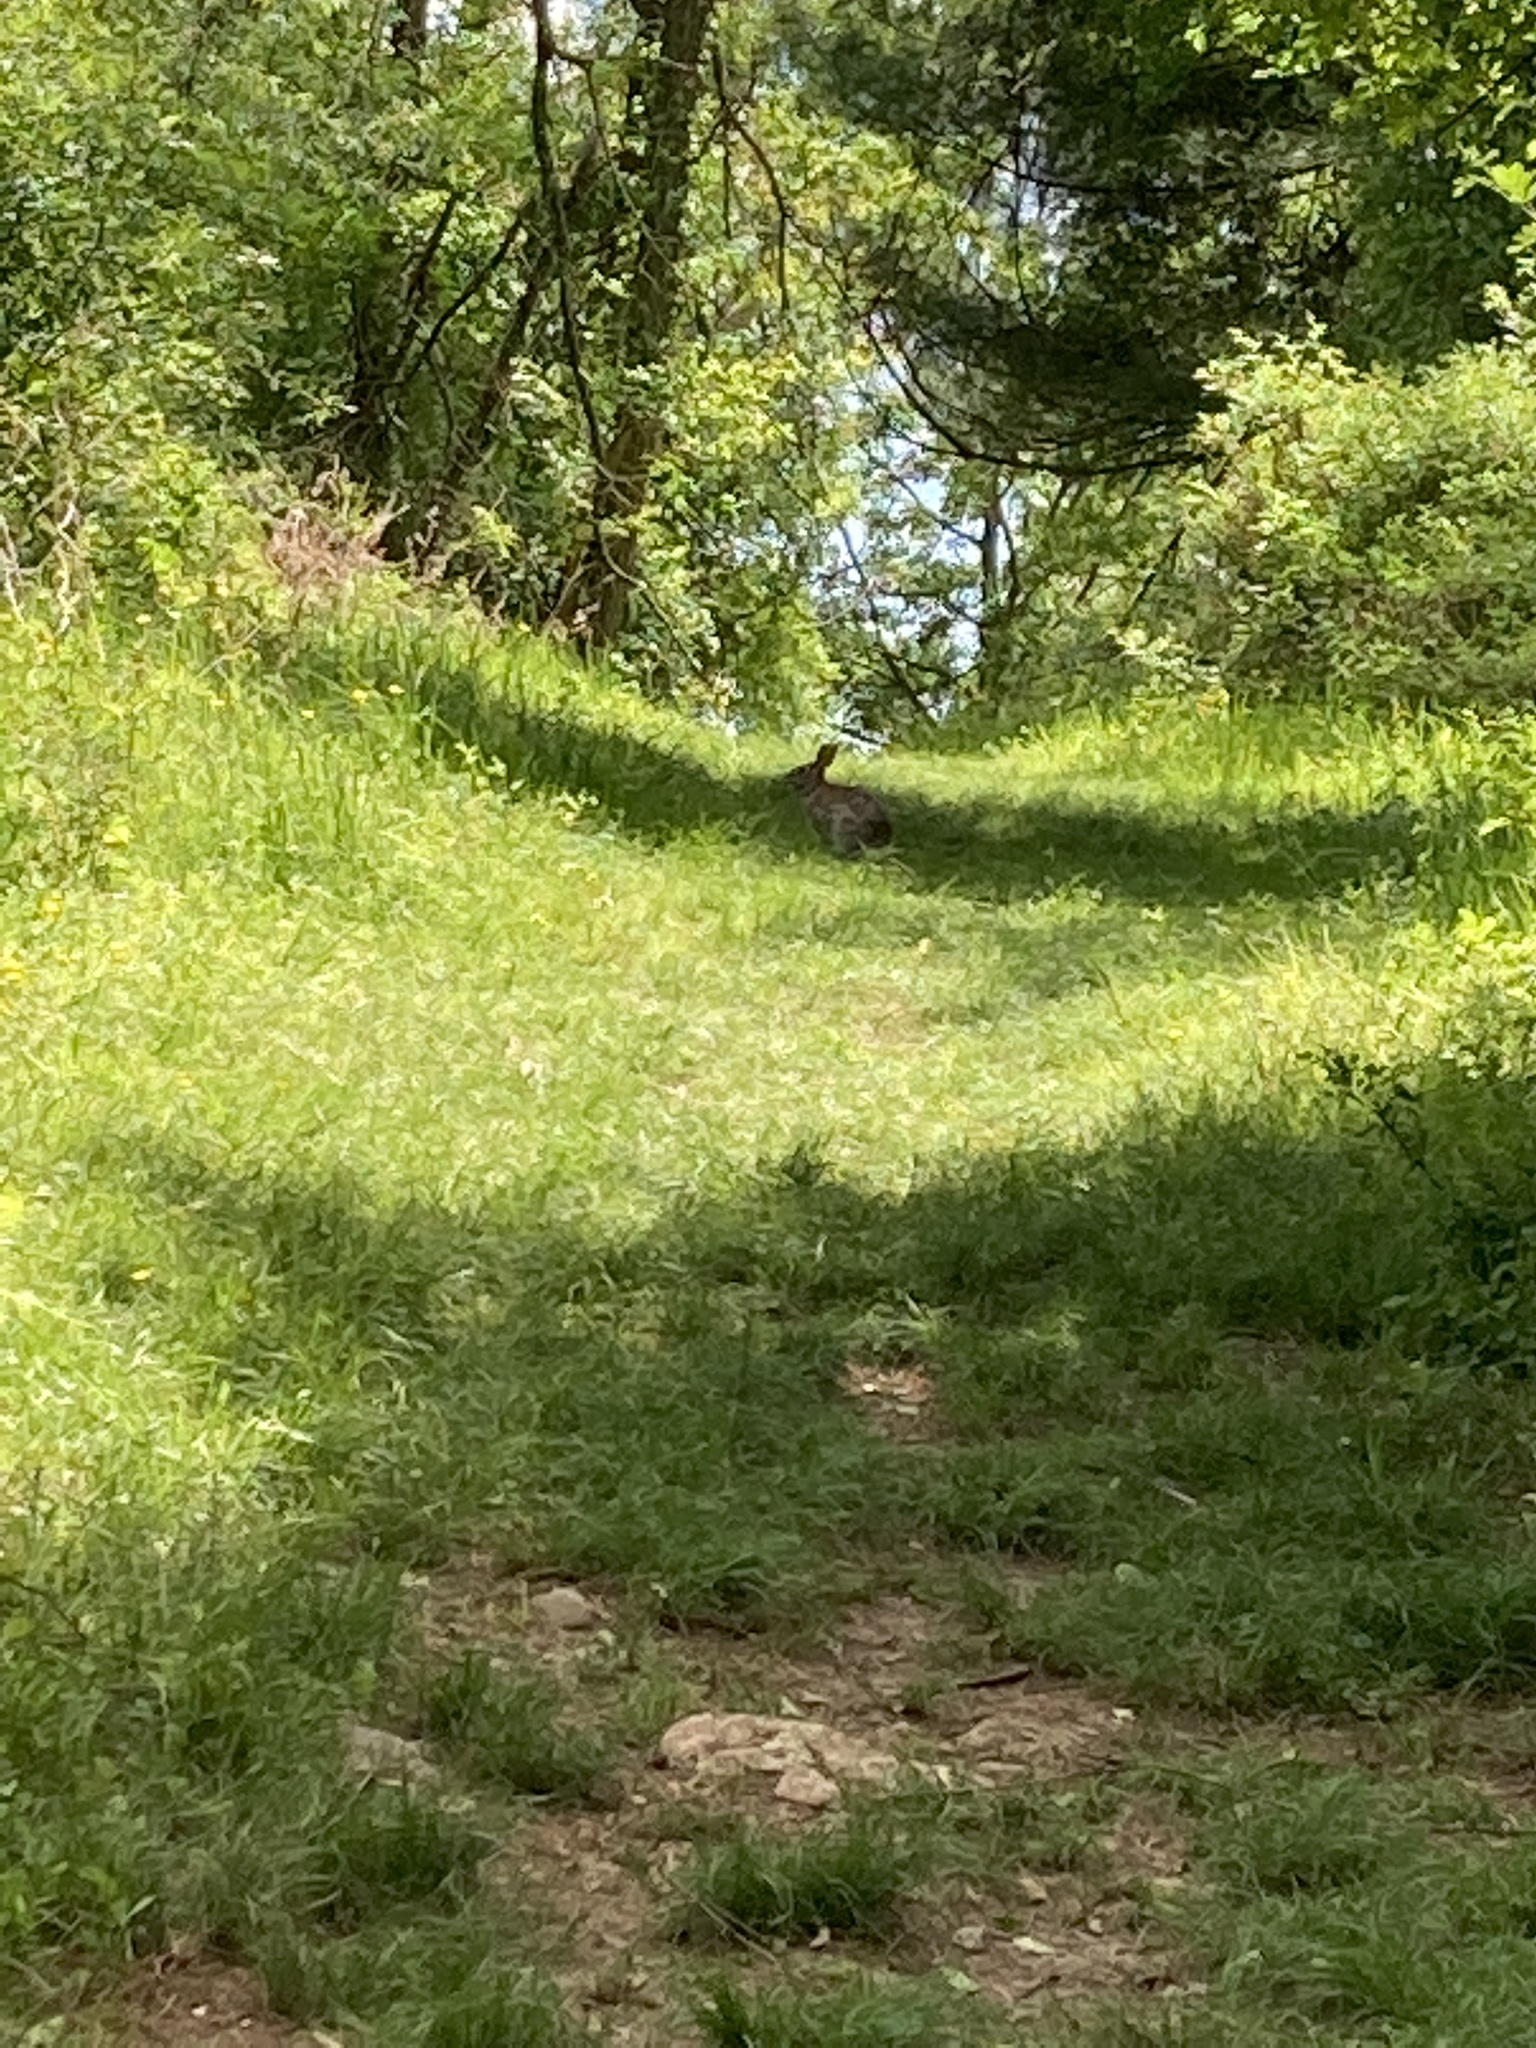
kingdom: Animalia
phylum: Chordata
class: Mammalia
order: Lagomorpha
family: Leporidae
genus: Sylvilagus
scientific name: Sylvilagus floridanus
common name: Eastern cottontail
